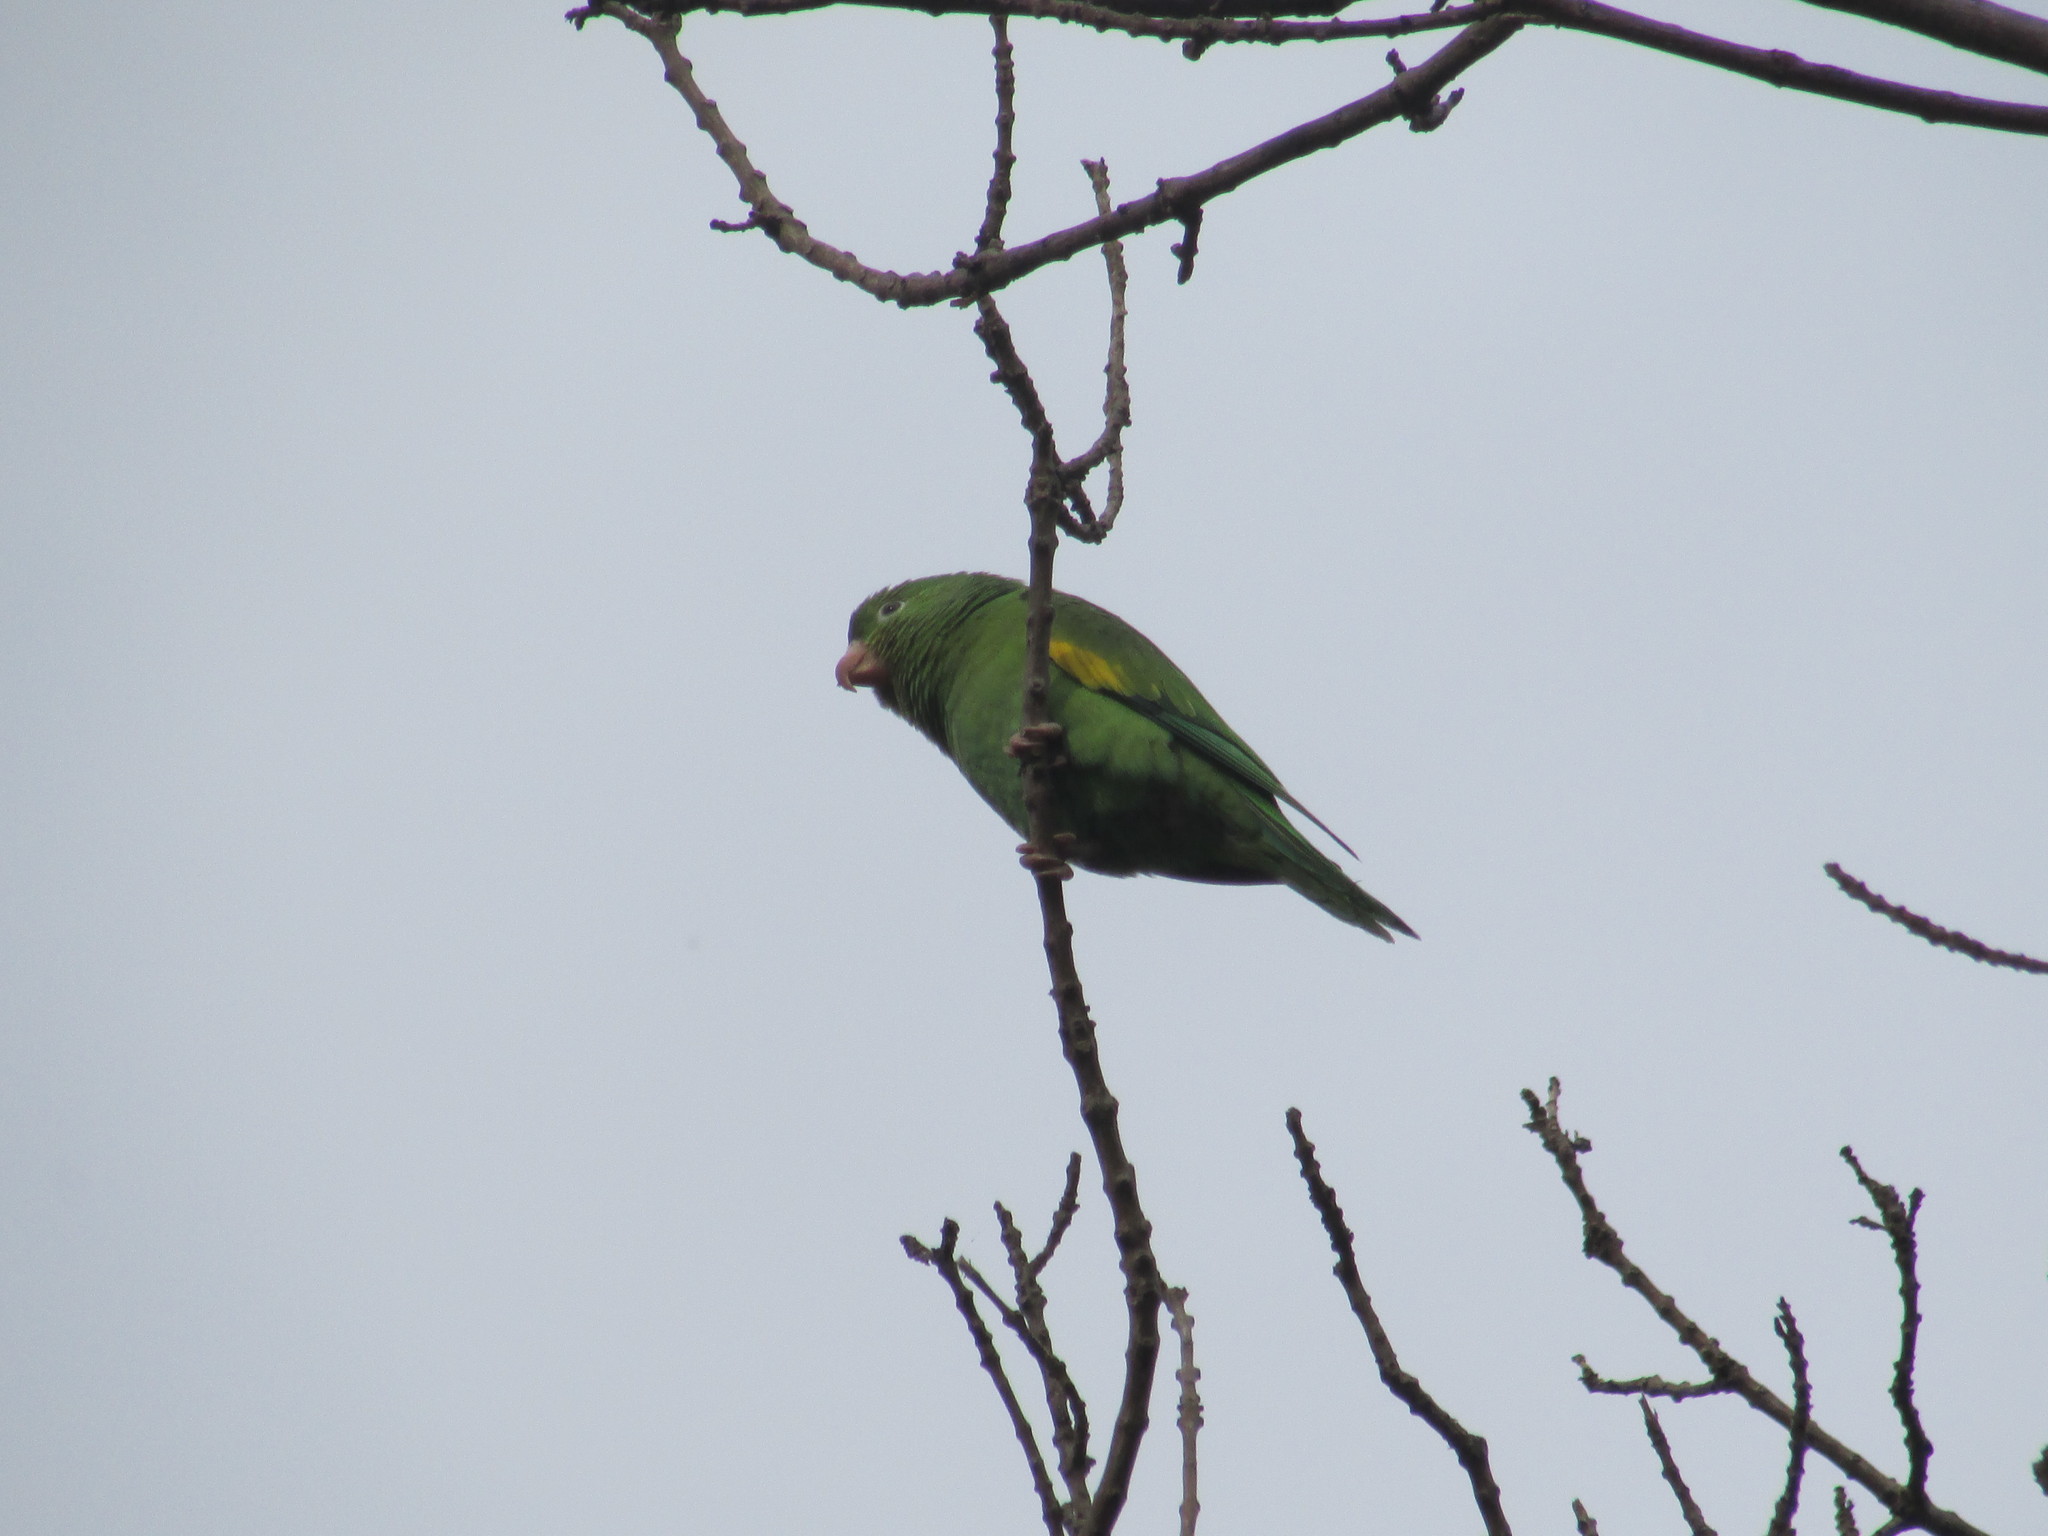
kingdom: Animalia
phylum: Chordata
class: Aves
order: Psittaciformes
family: Psittacidae
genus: Brotogeris
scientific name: Brotogeris chiriri
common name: Yellow-chevroned parakeet
